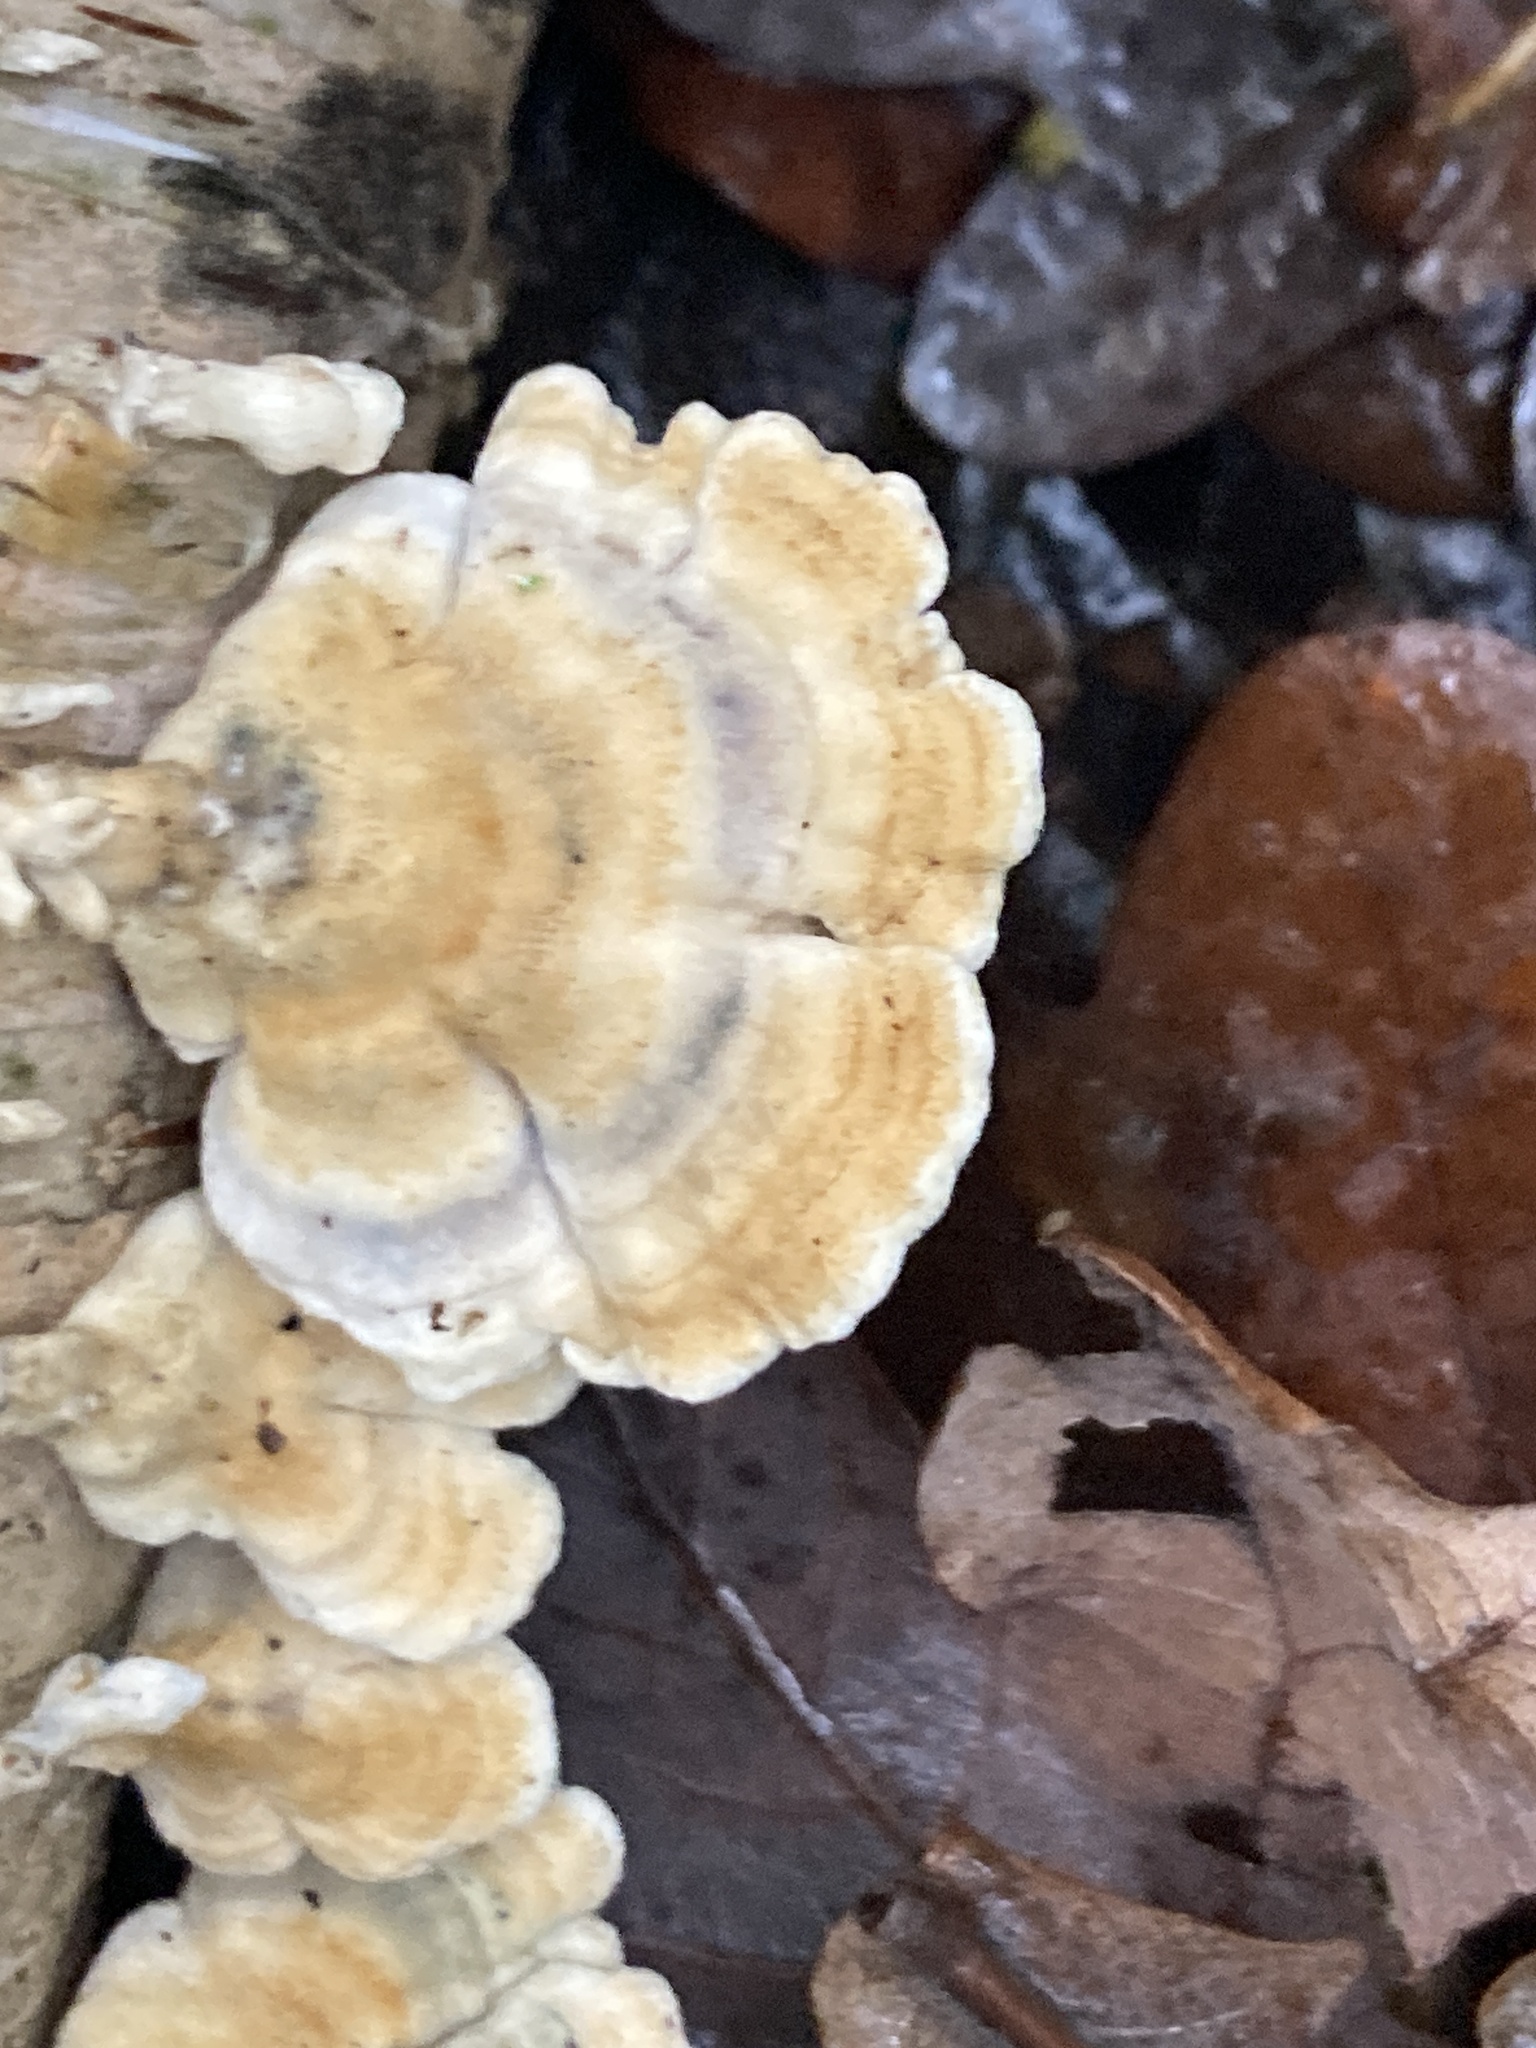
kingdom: Fungi
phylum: Basidiomycota
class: Agaricomycetes
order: Amylocorticiales
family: Amylocorticiaceae
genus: Plicaturopsis
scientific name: Plicaturopsis crispa
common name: Crimped gill
